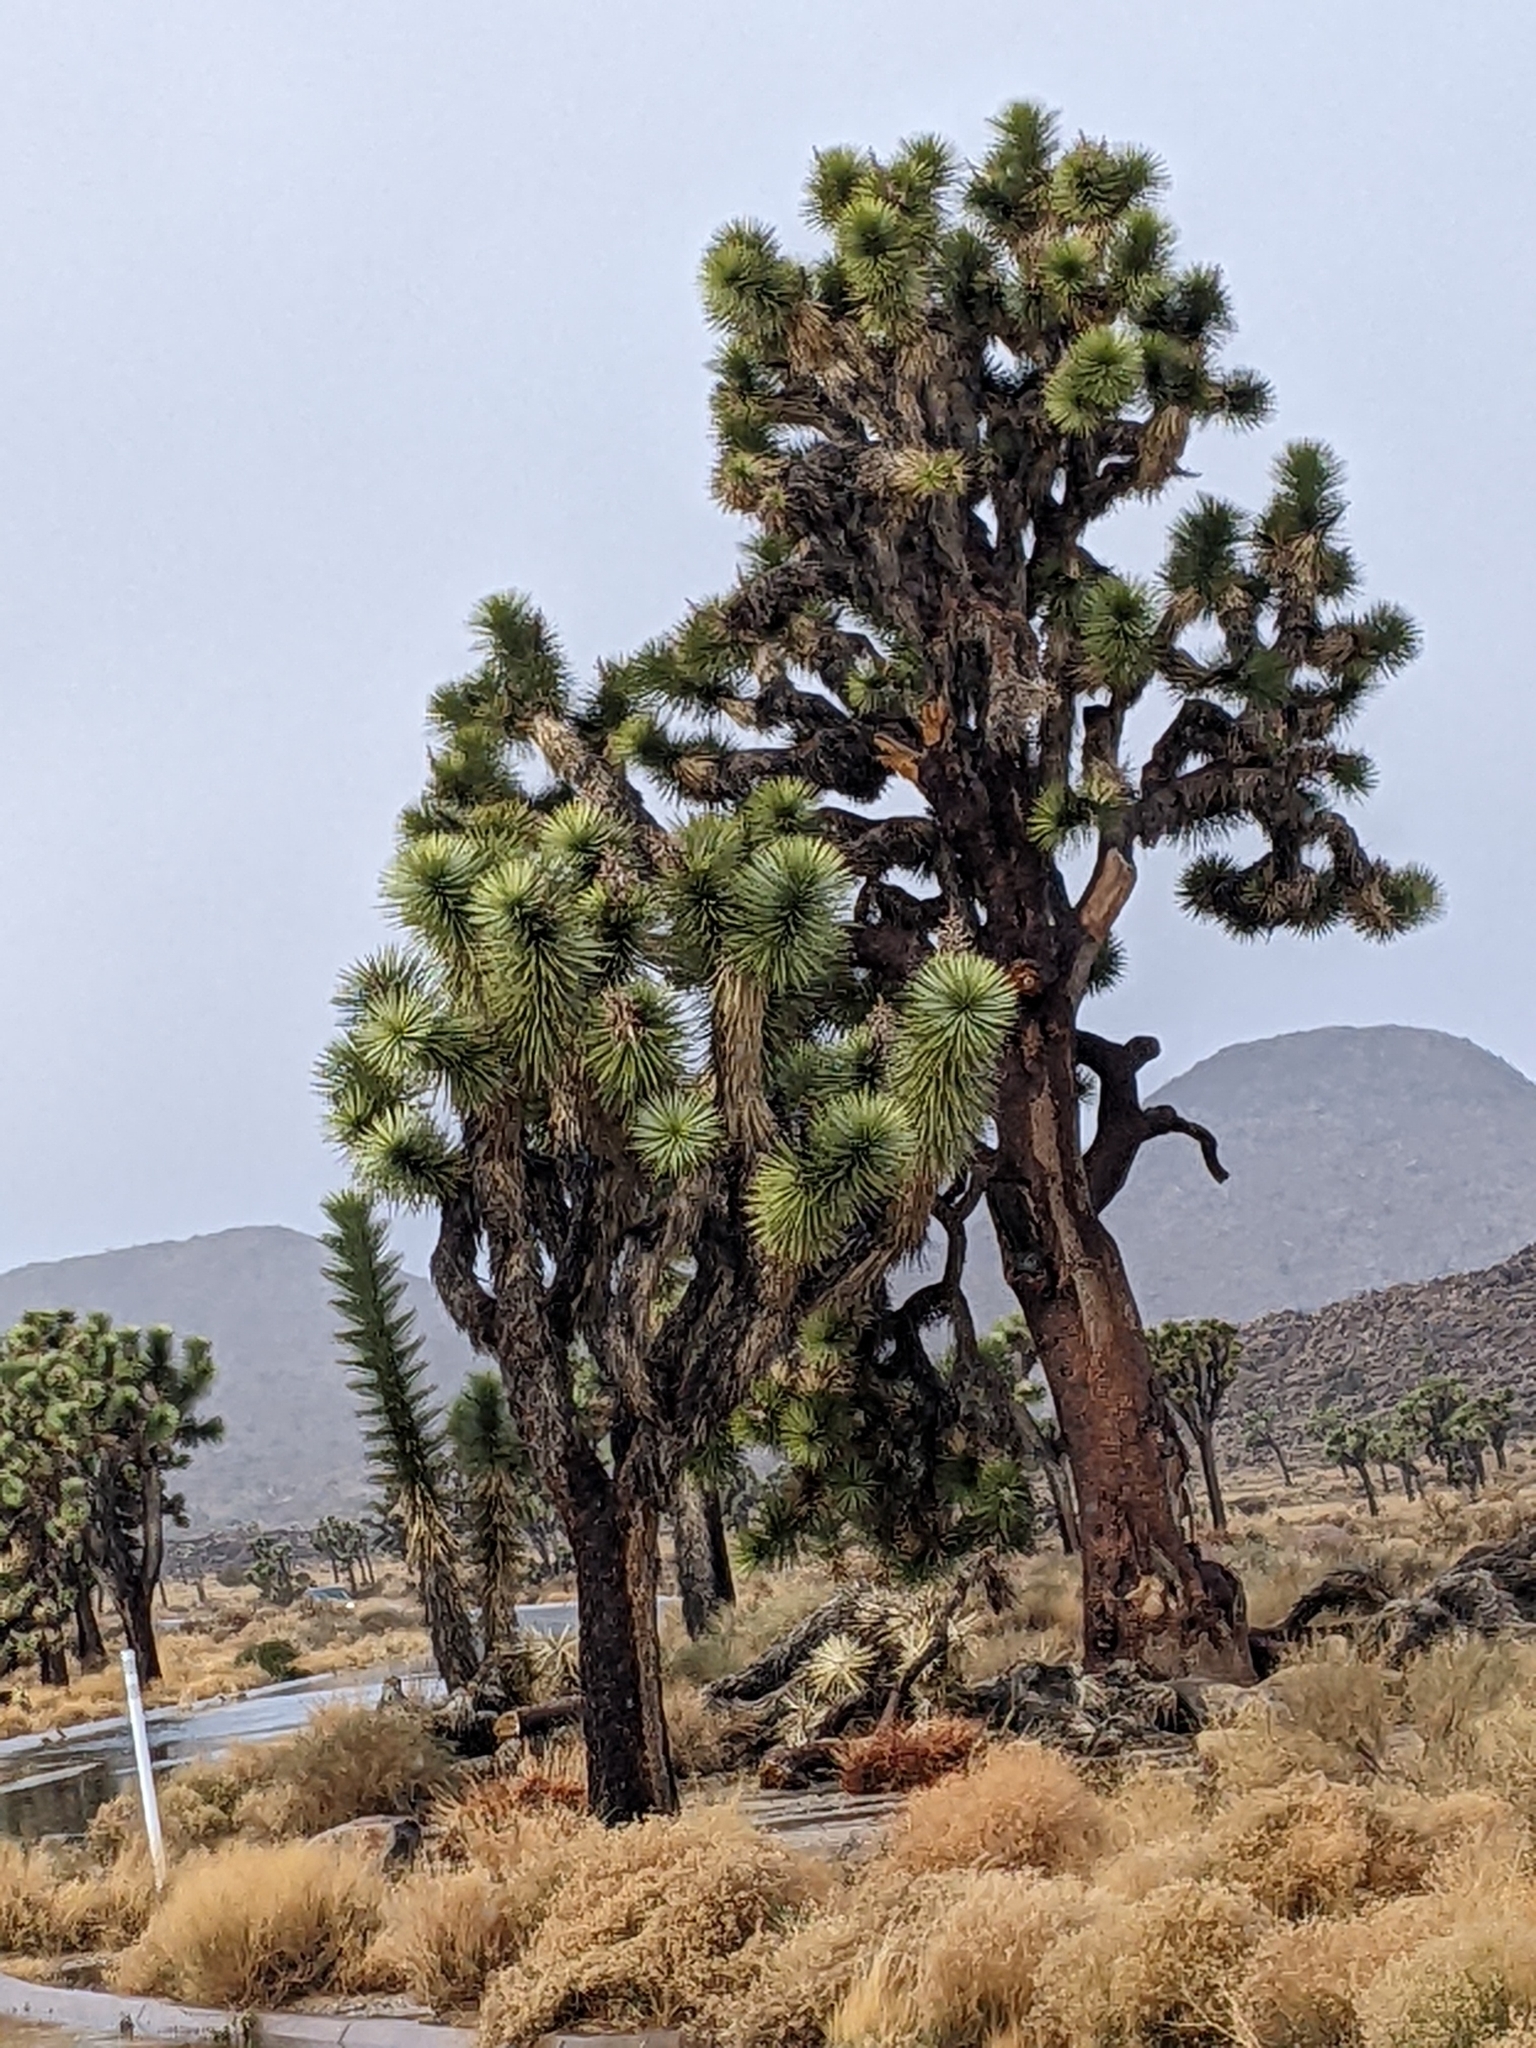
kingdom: Plantae
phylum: Tracheophyta
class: Liliopsida
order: Asparagales
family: Asparagaceae
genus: Yucca
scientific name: Yucca brevifolia
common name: Joshua tree
